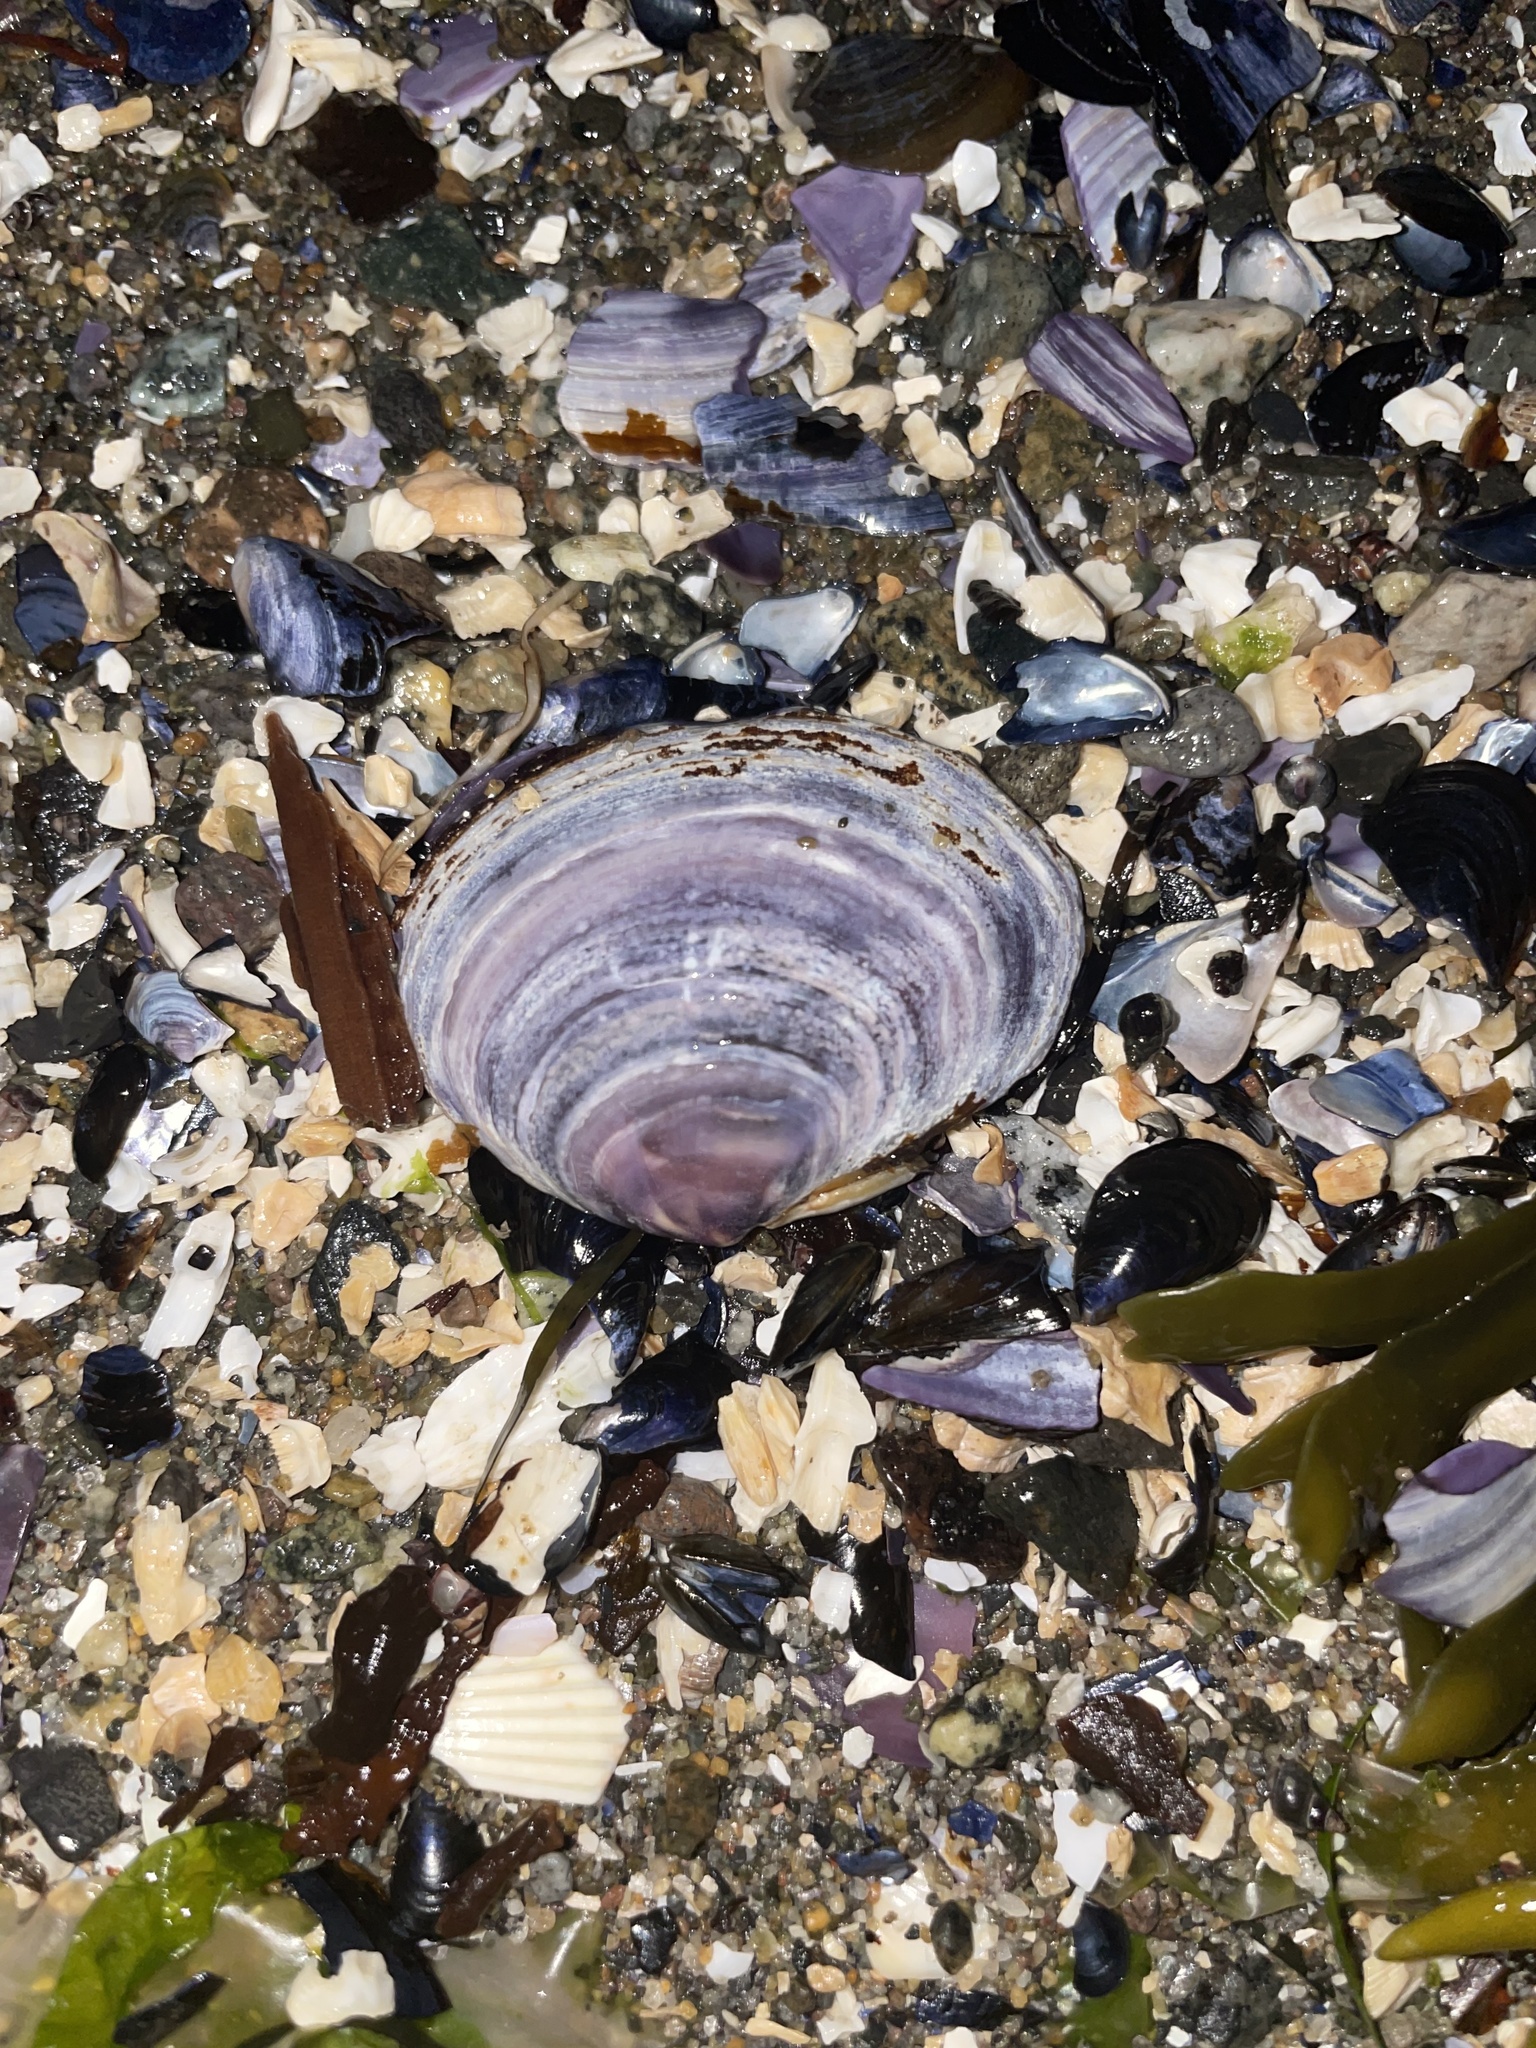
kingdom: Animalia
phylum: Mollusca
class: Bivalvia
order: Cardiida
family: Psammobiidae
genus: Nuttallia
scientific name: Nuttallia obscurata
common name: Purple mahogany-clam
